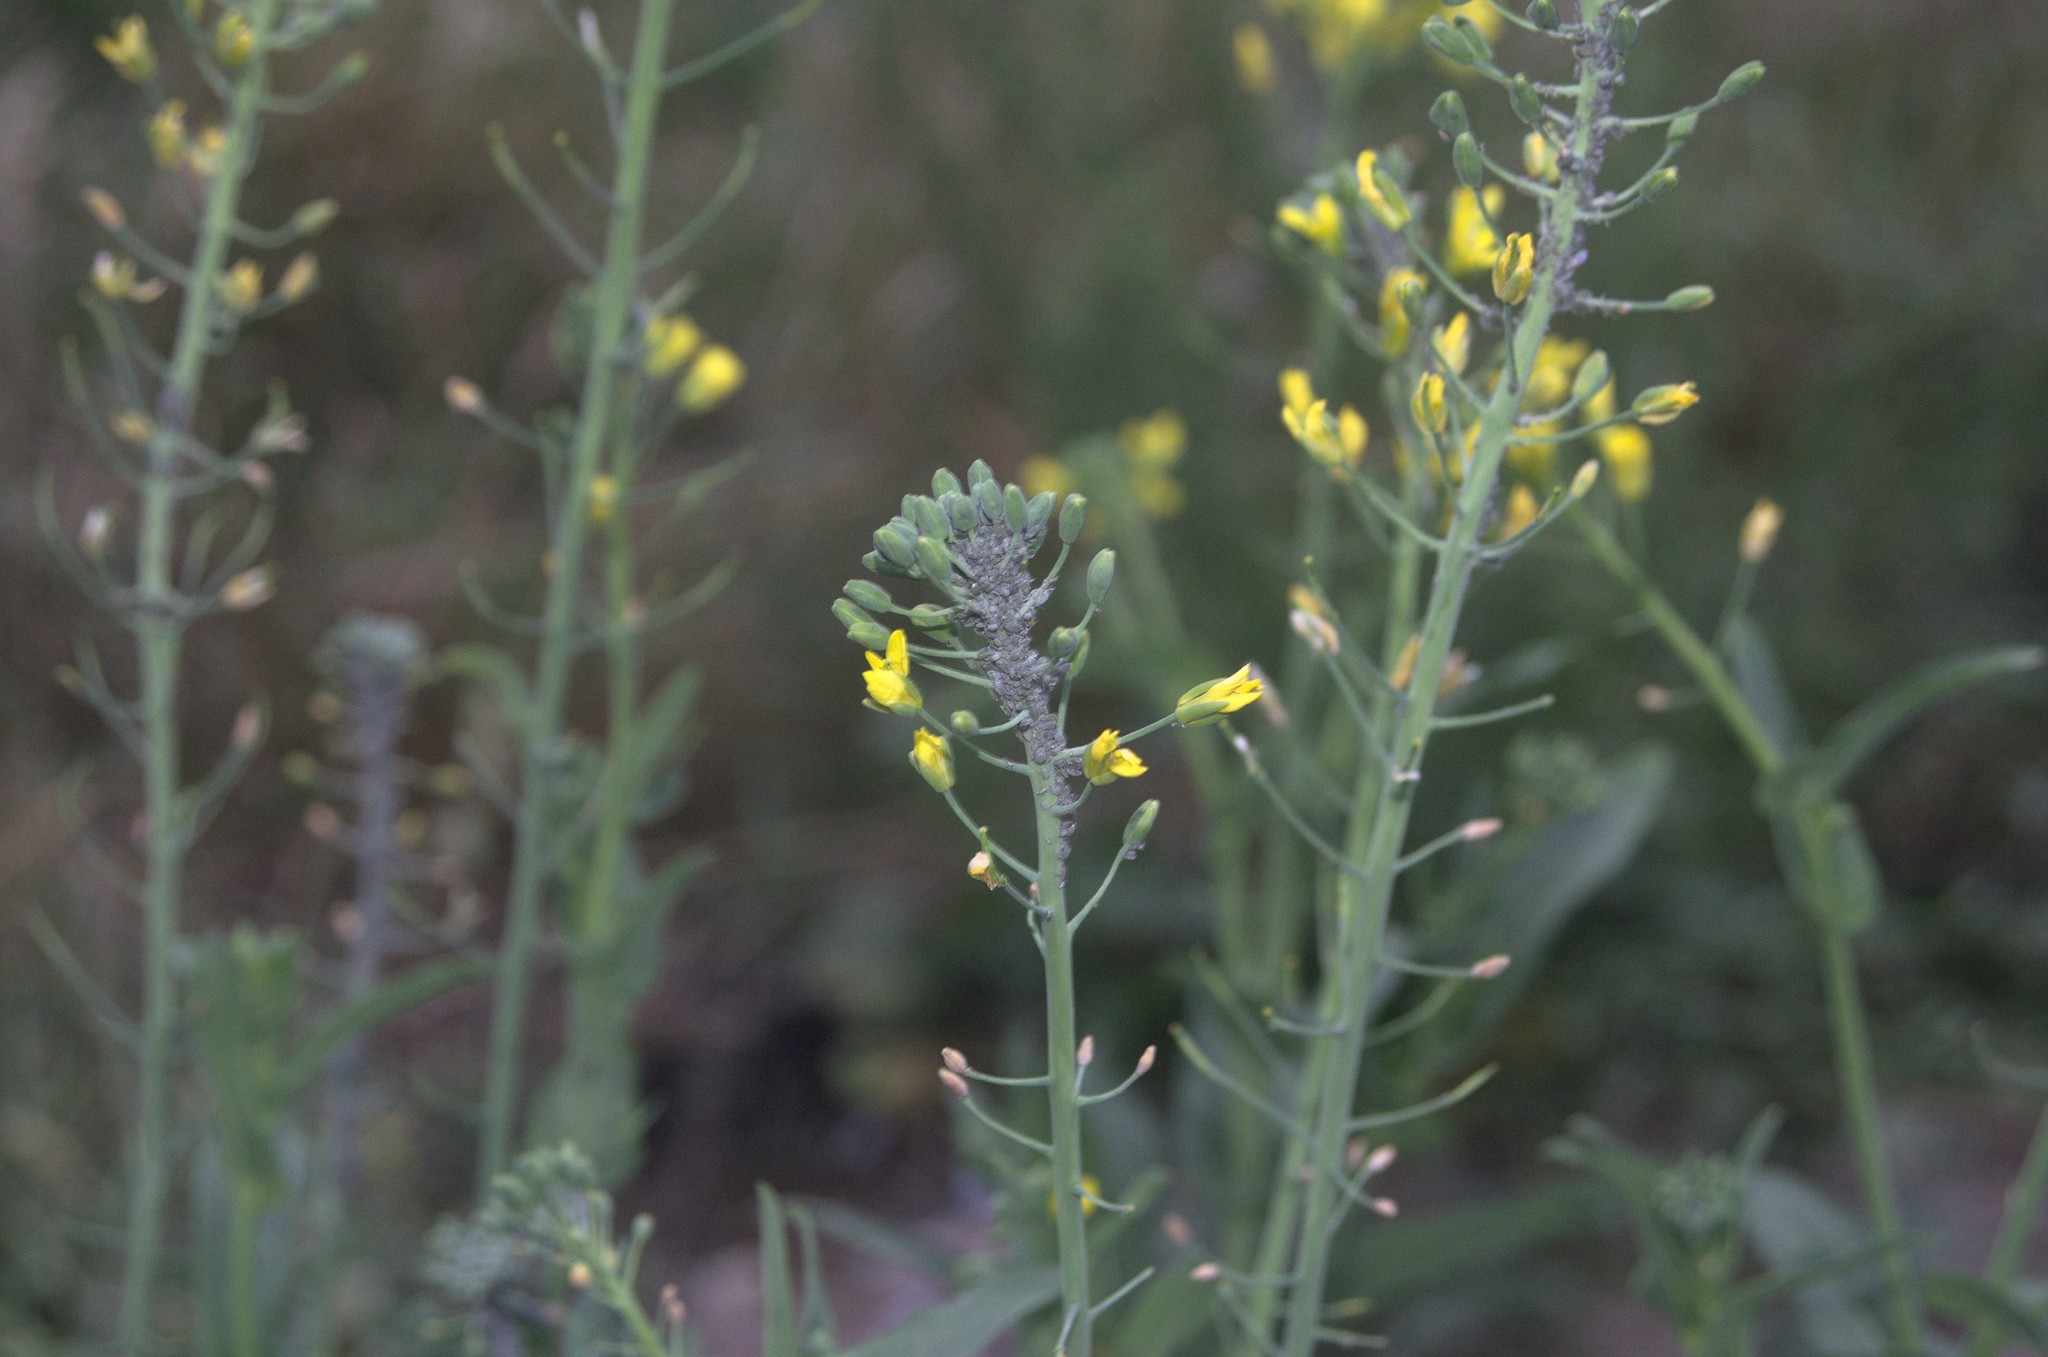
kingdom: Animalia
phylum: Arthropoda
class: Insecta
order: Hemiptera
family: Aphididae
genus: Brevicoryne
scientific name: Brevicoryne brassicae
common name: Cabbage aphid
